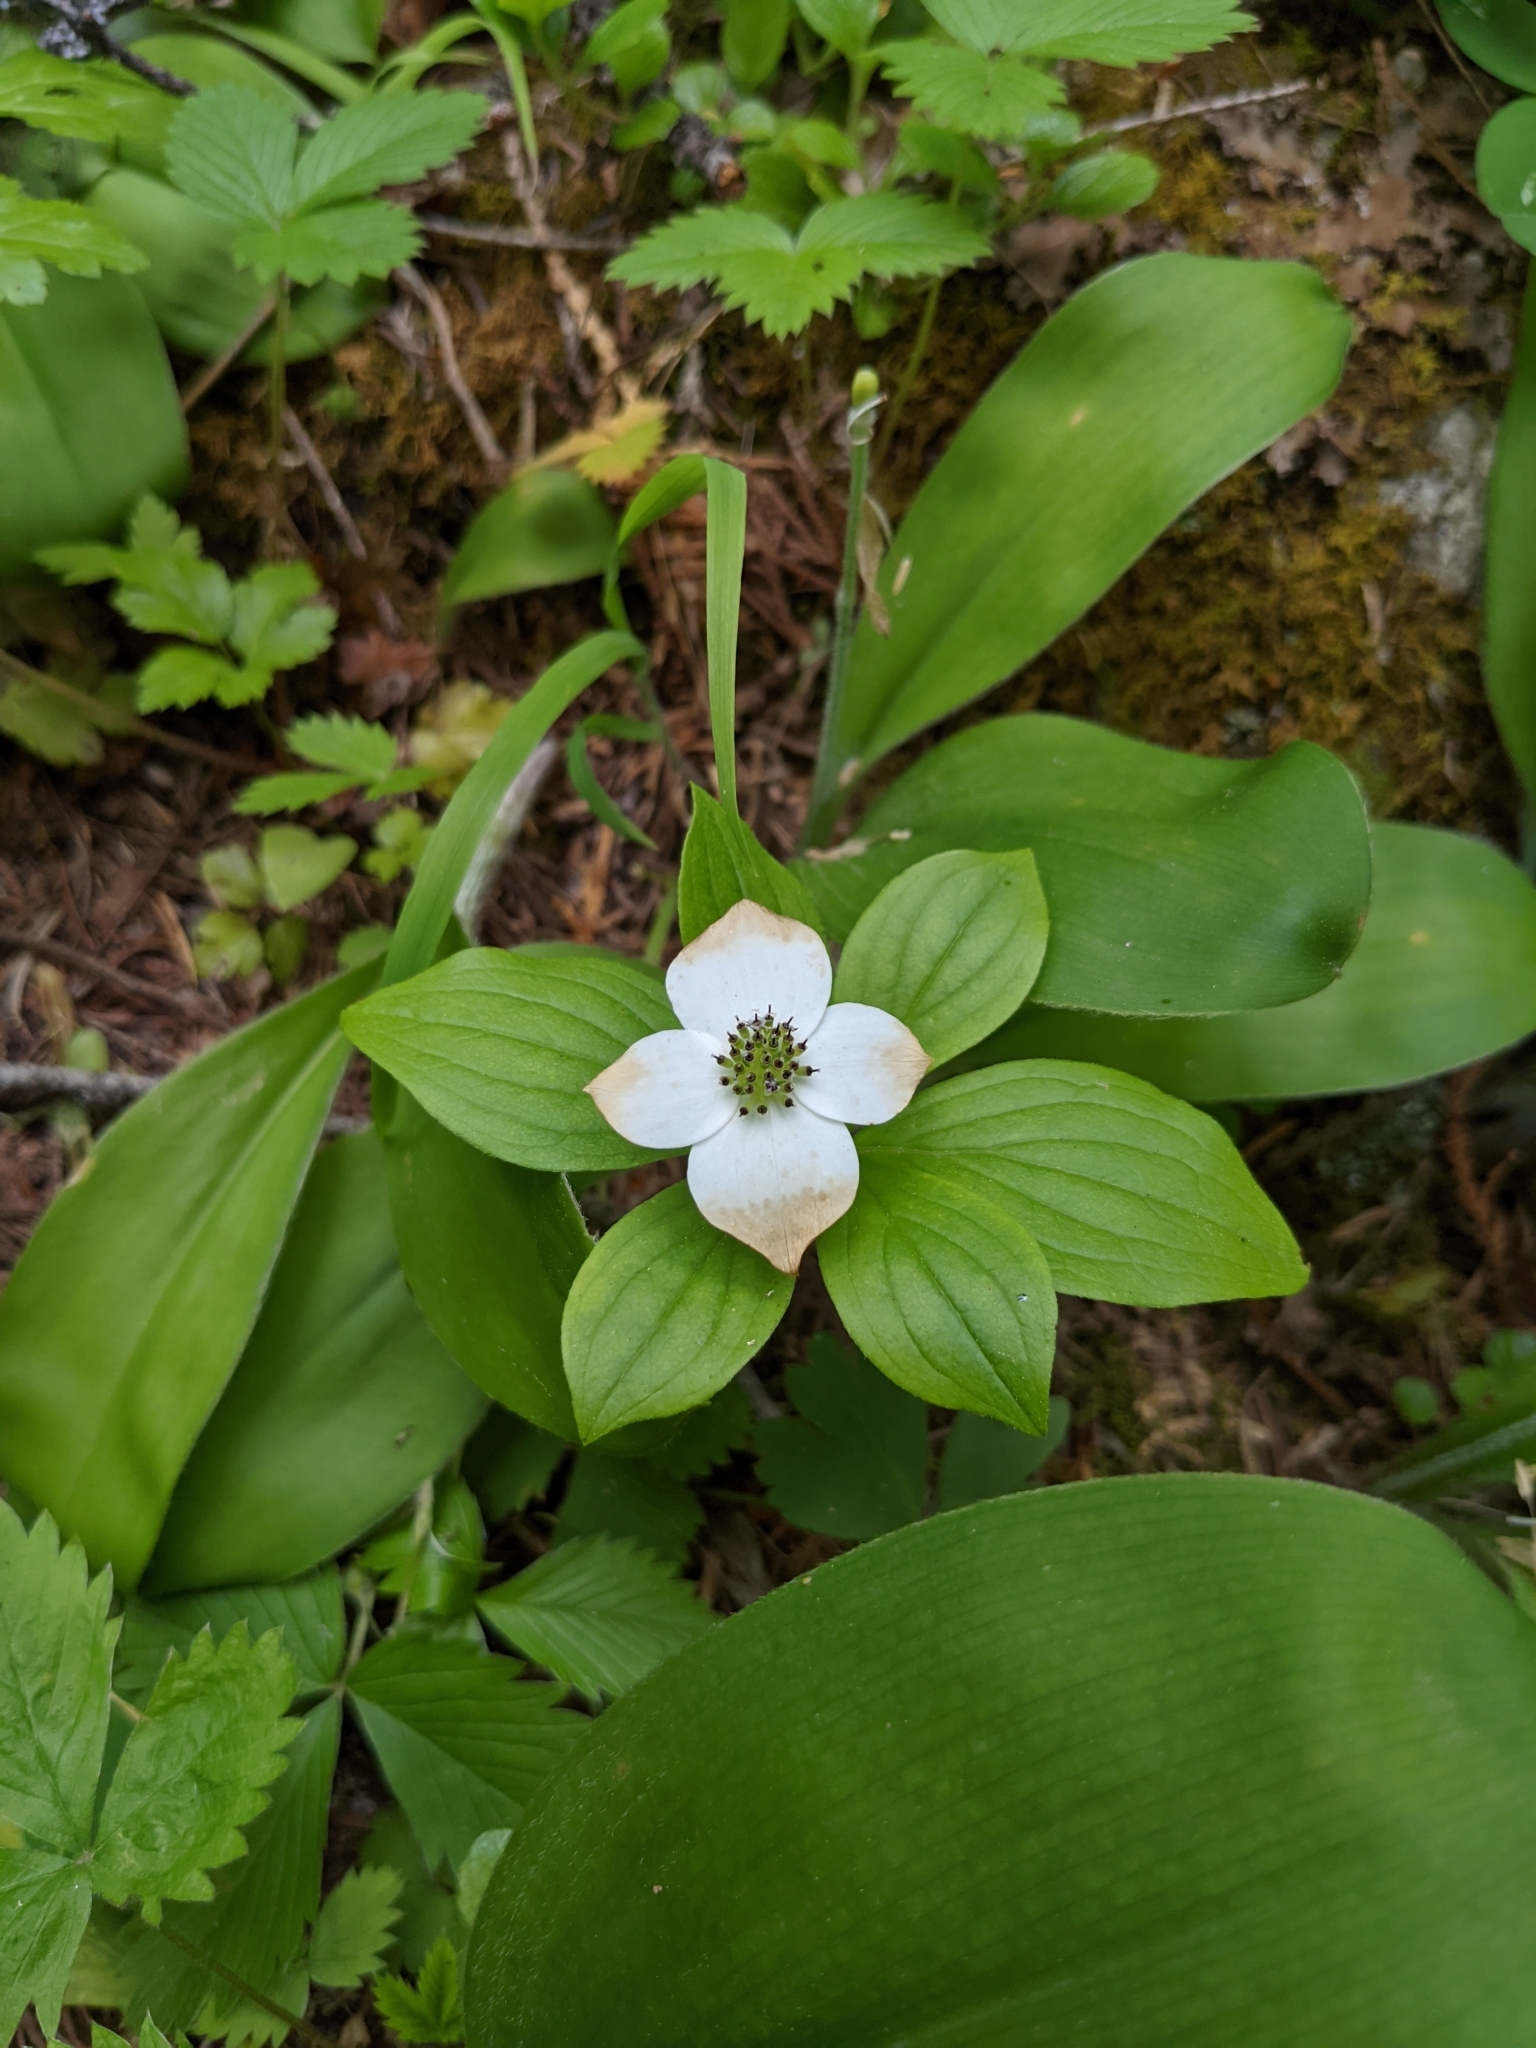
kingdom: Plantae
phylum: Tracheophyta
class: Magnoliopsida
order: Cornales
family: Cornaceae
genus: Cornus
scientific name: Cornus unalaschkensis
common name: Alaska bunchberry
